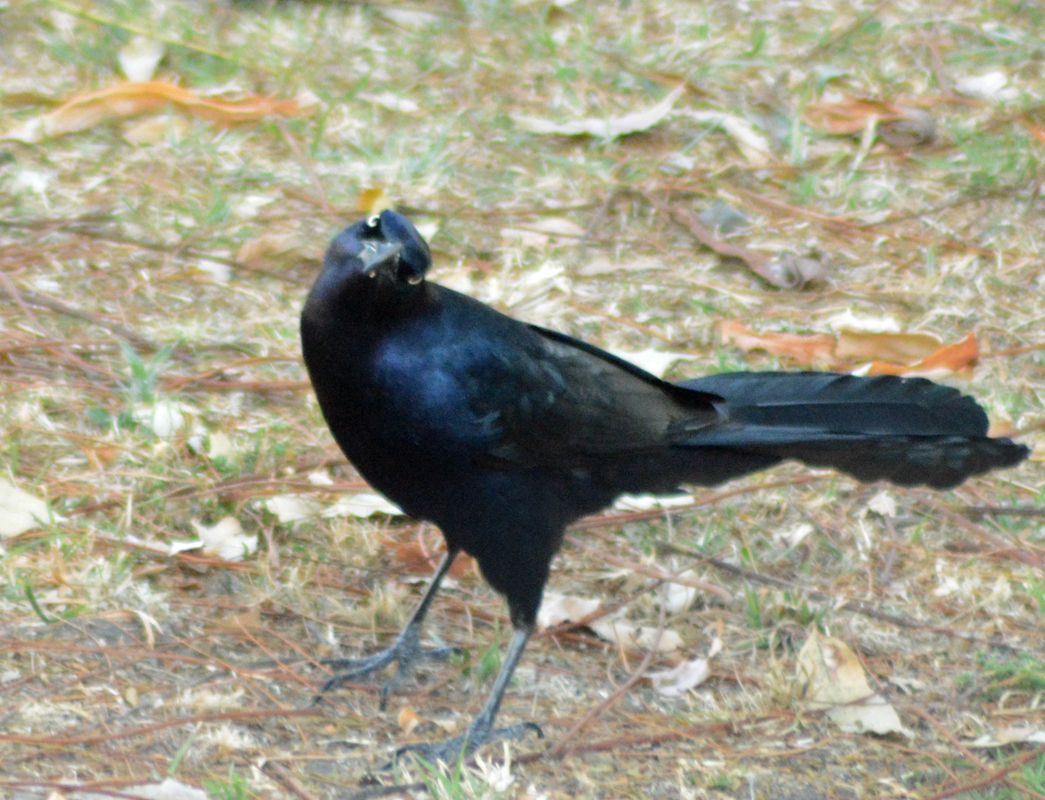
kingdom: Animalia
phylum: Chordata
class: Aves
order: Passeriformes
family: Icteridae
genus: Quiscalus
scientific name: Quiscalus mexicanus
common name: Great-tailed grackle
